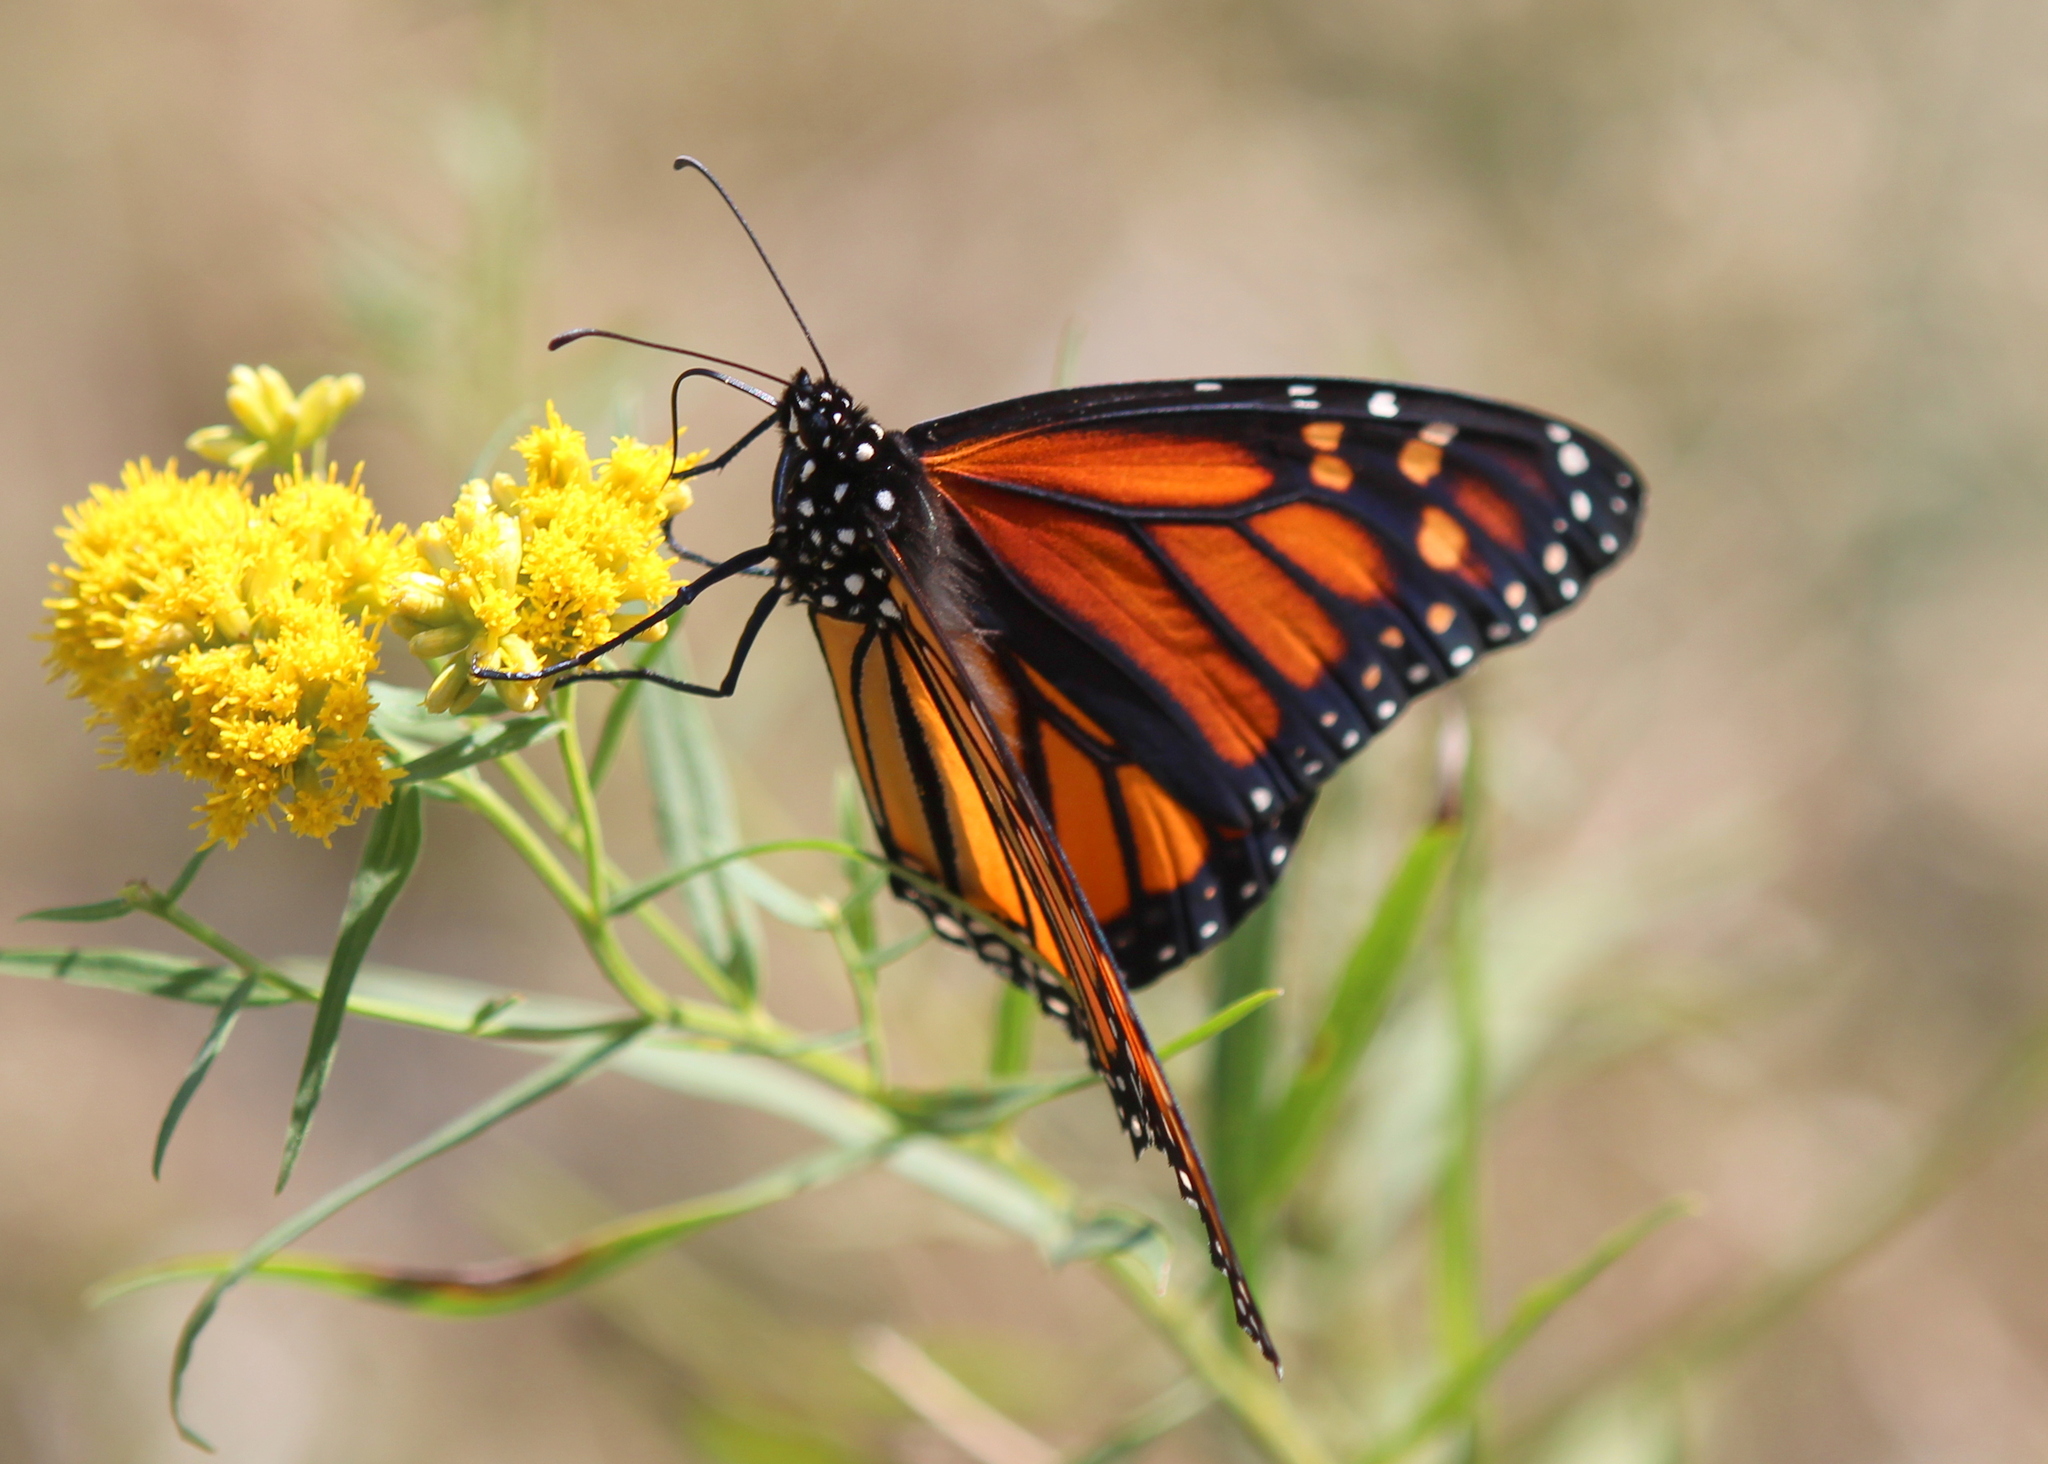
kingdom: Animalia
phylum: Arthropoda
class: Insecta
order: Lepidoptera
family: Nymphalidae
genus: Danaus
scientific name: Danaus plexippus
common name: Monarch
